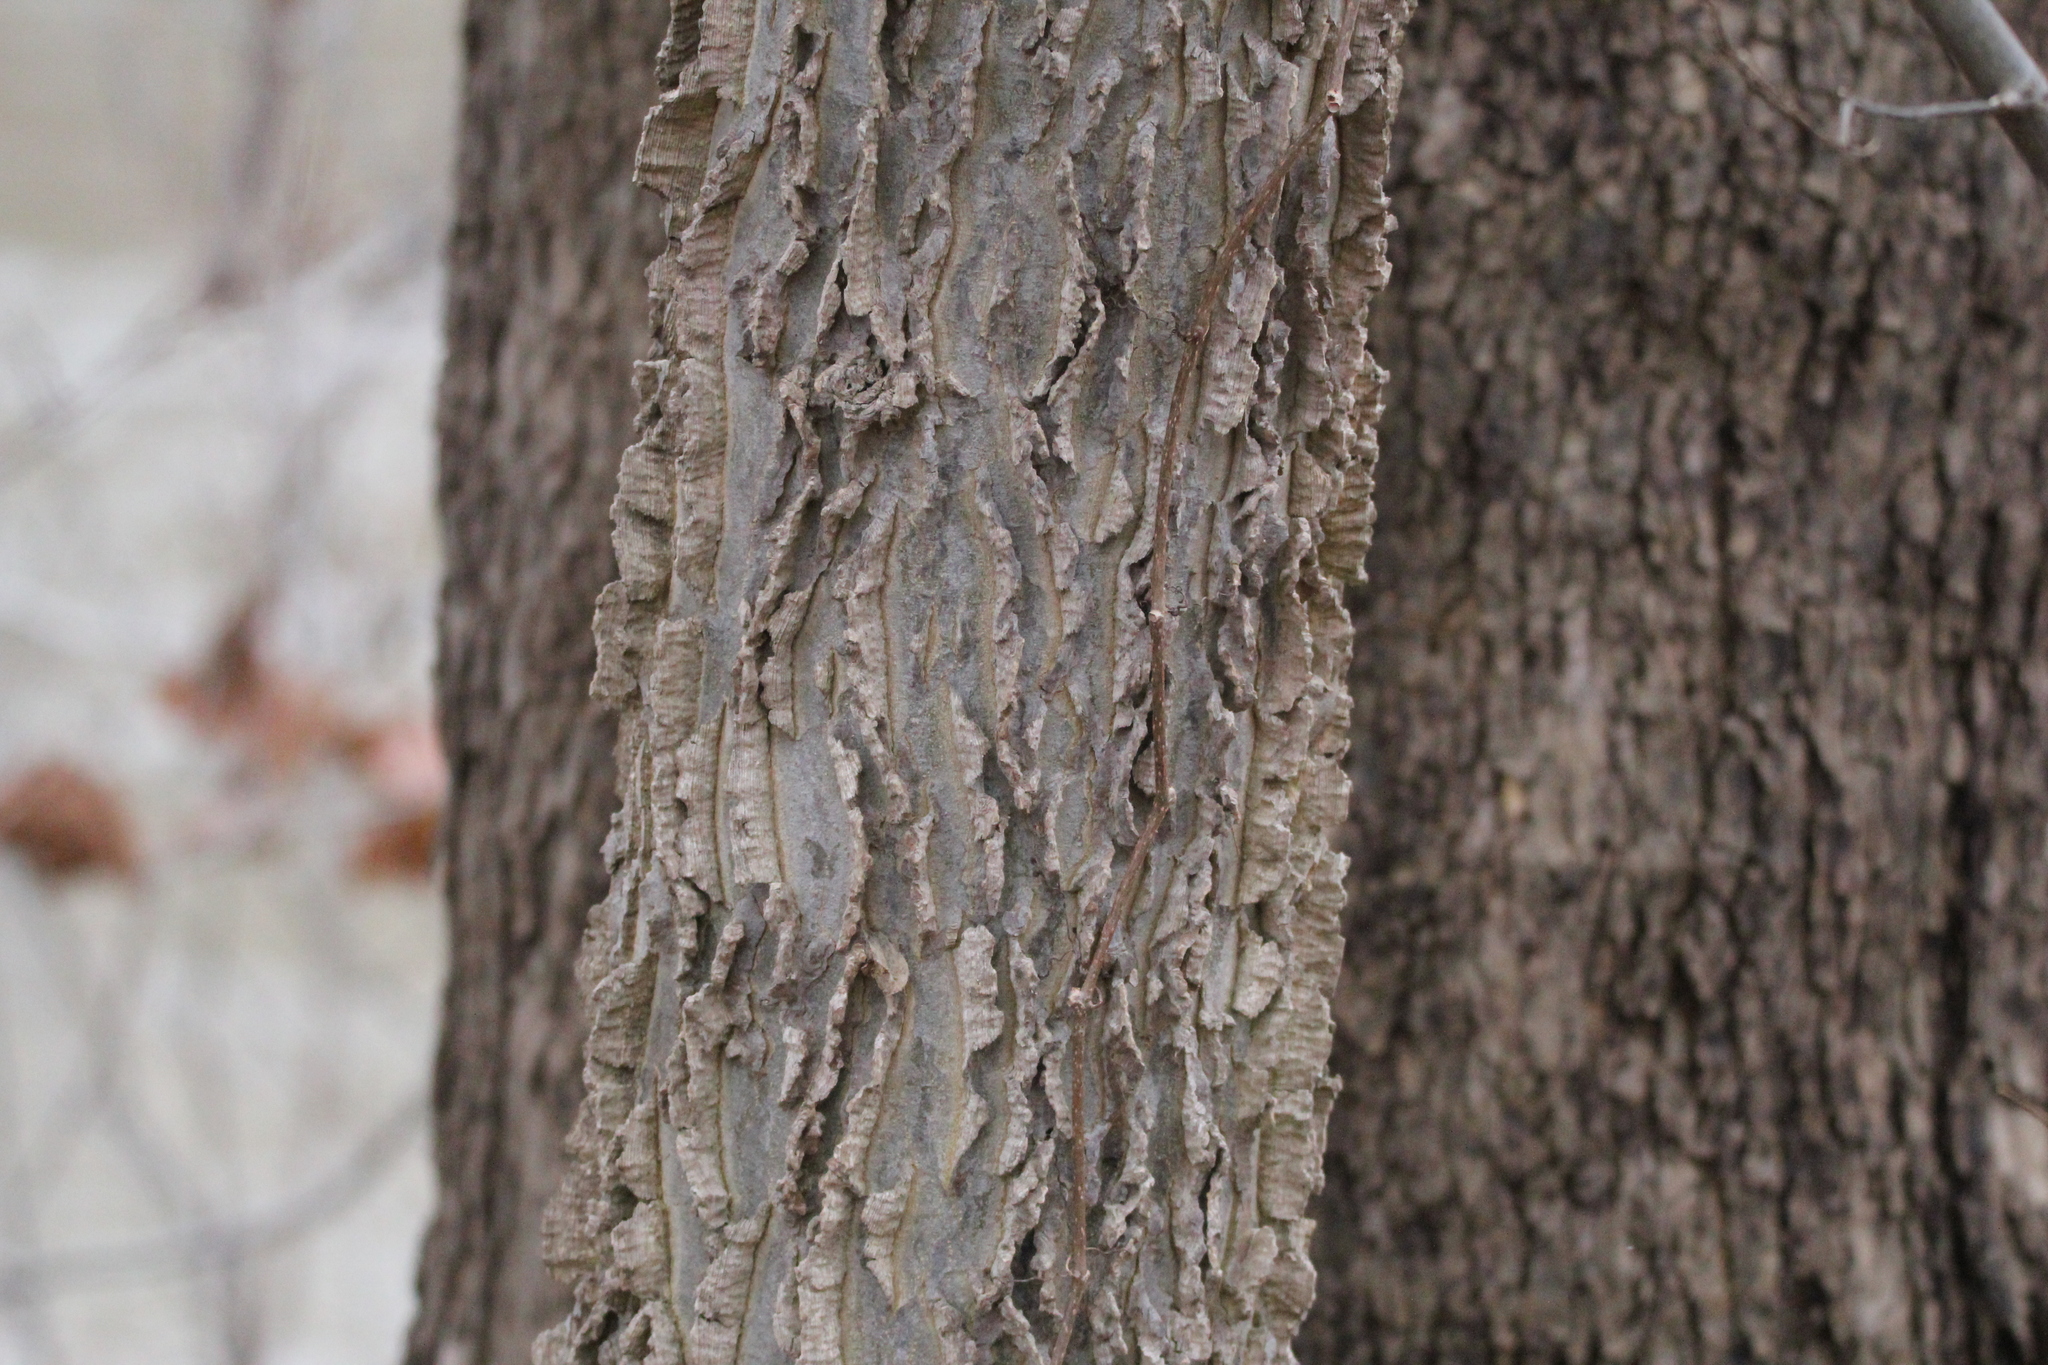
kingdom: Plantae
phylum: Tracheophyta
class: Magnoliopsida
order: Rosales
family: Cannabaceae
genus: Celtis
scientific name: Celtis occidentalis
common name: Common hackberry
